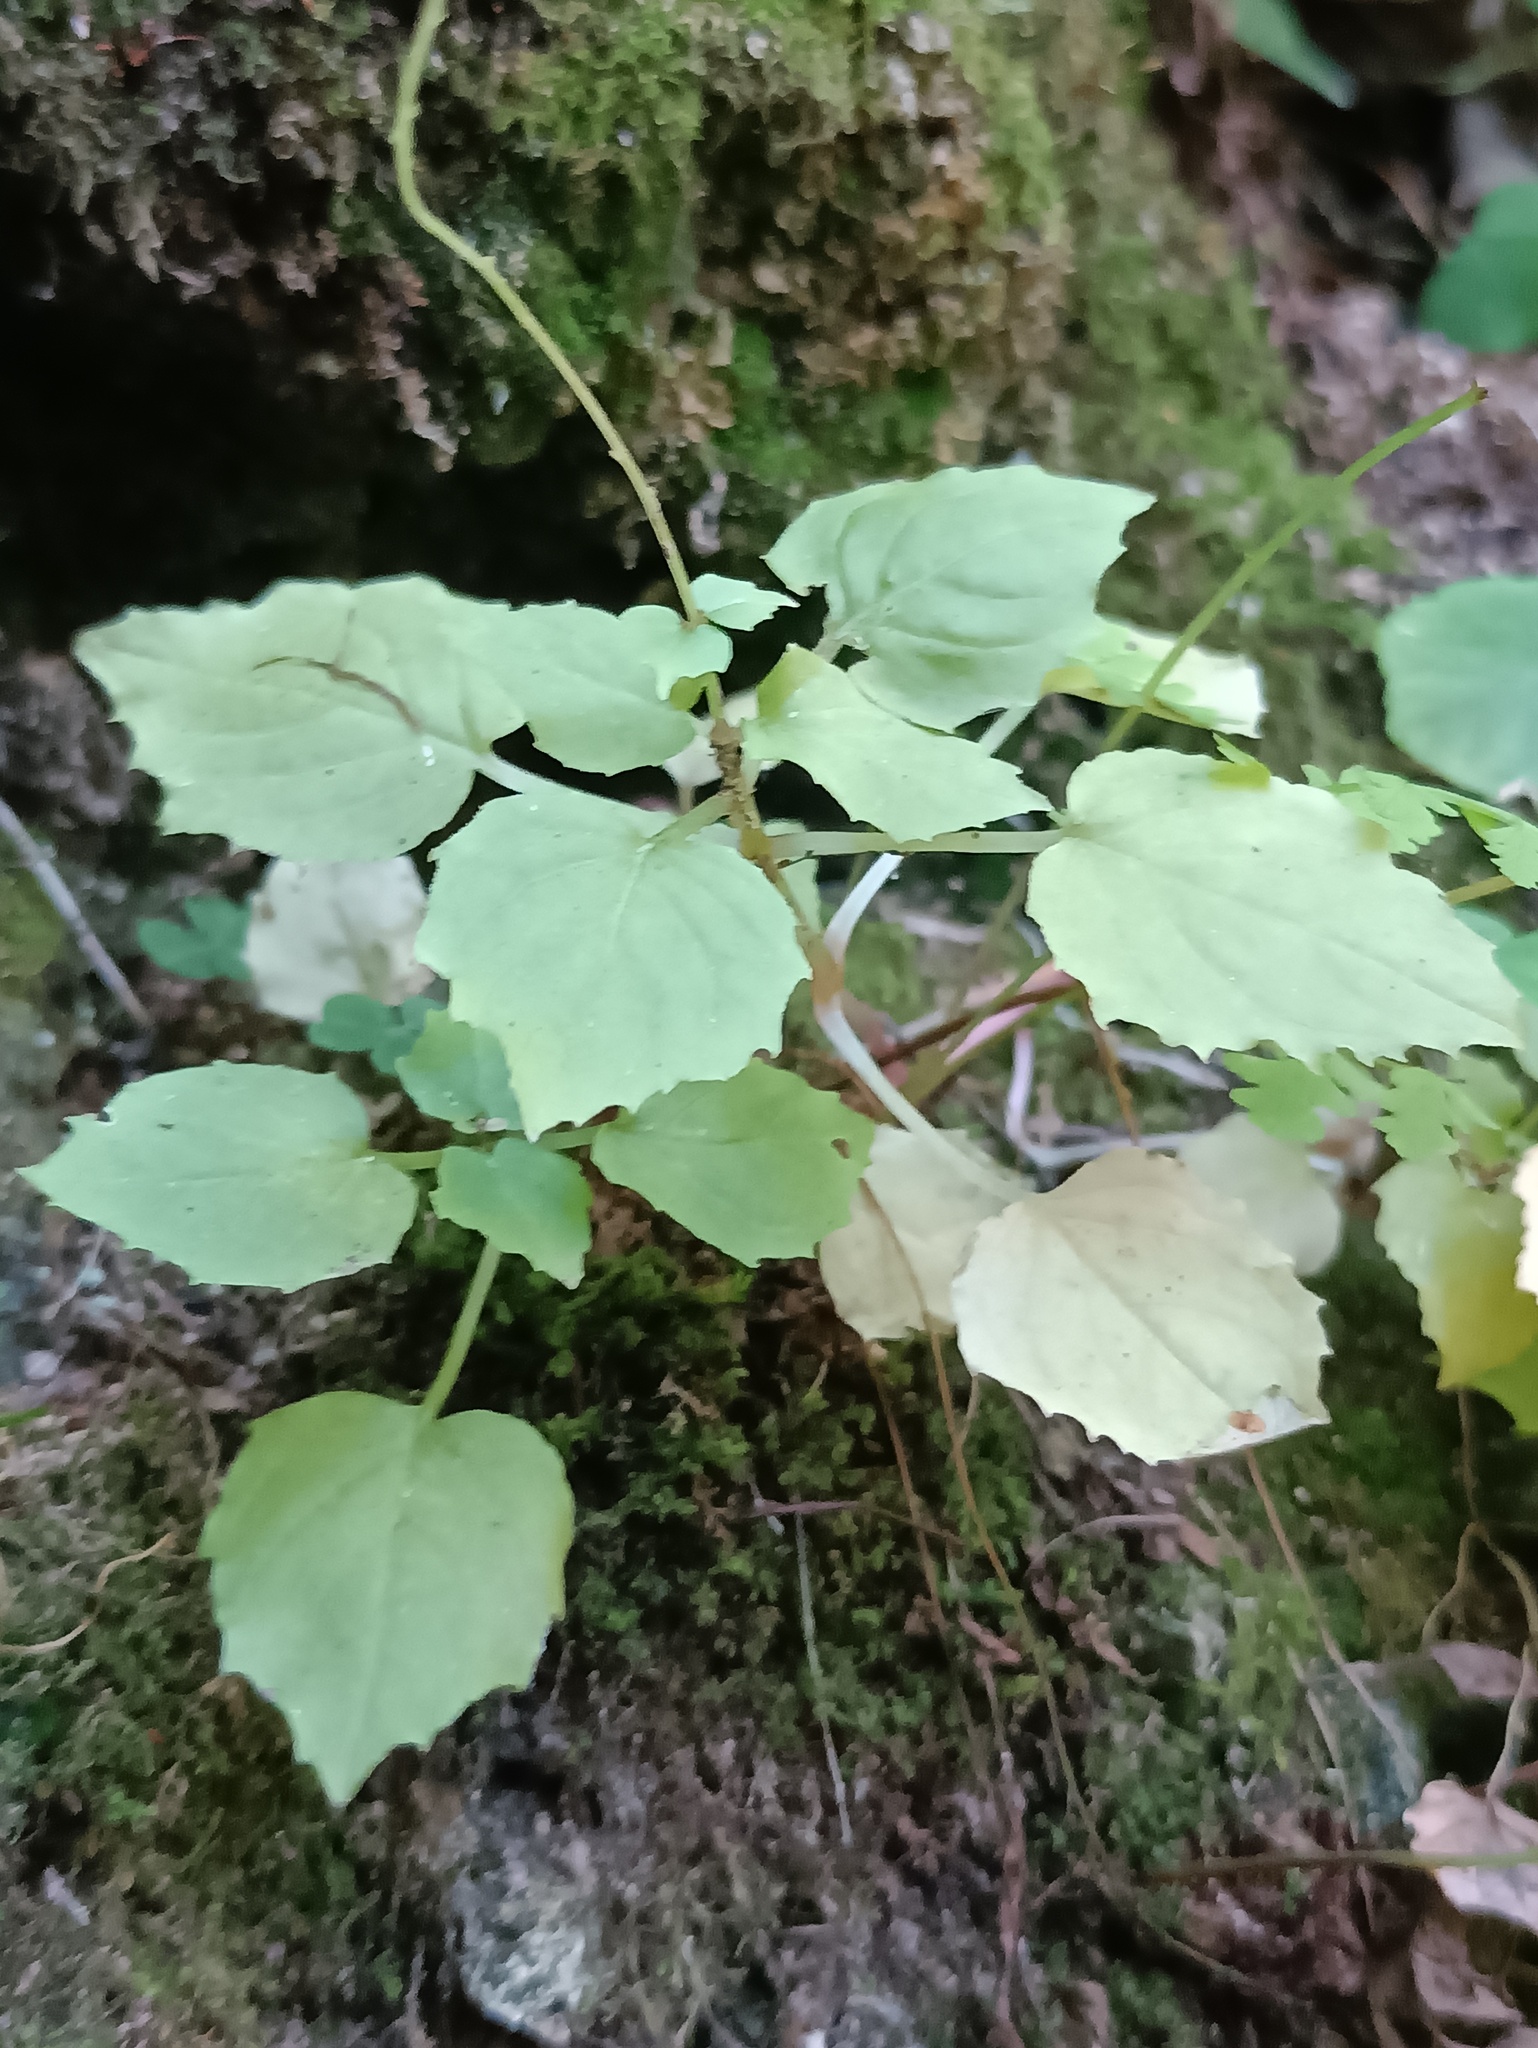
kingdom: Plantae
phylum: Tracheophyta
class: Magnoliopsida
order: Myrtales
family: Onagraceae
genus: Circaea
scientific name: Circaea alpina
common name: Alpine enchanter's-nightshade
